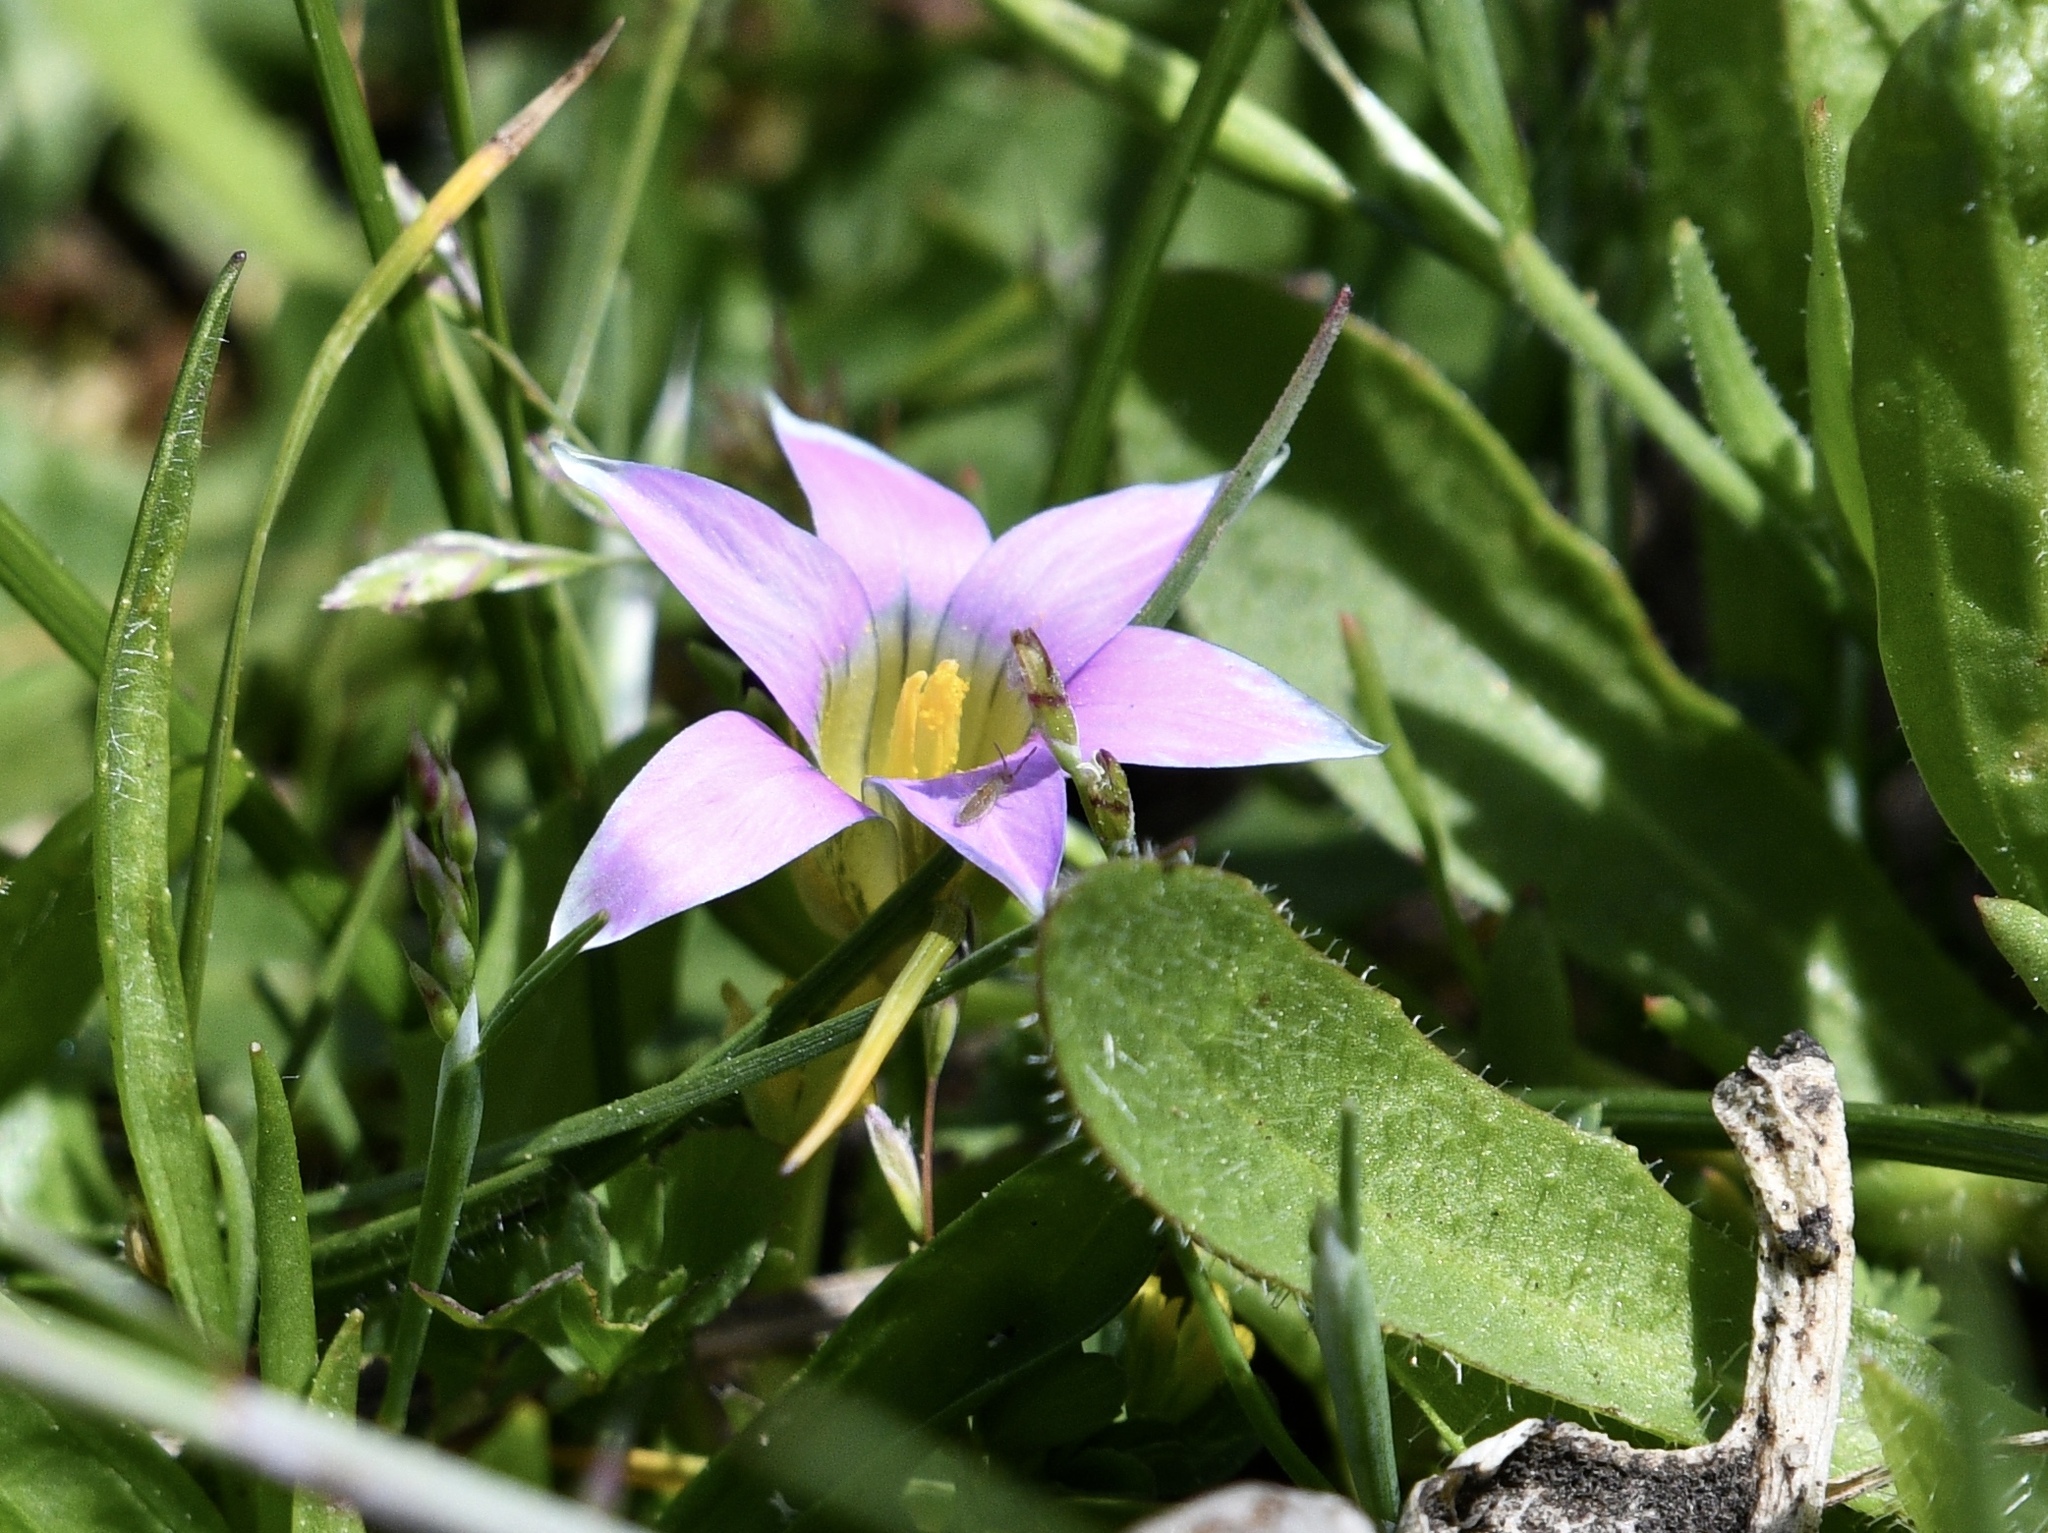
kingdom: Plantae
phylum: Tracheophyta
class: Liliopsida
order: Asparagales
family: Iridaceae
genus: Romulea
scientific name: Romulea rosea
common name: Oniongrass
